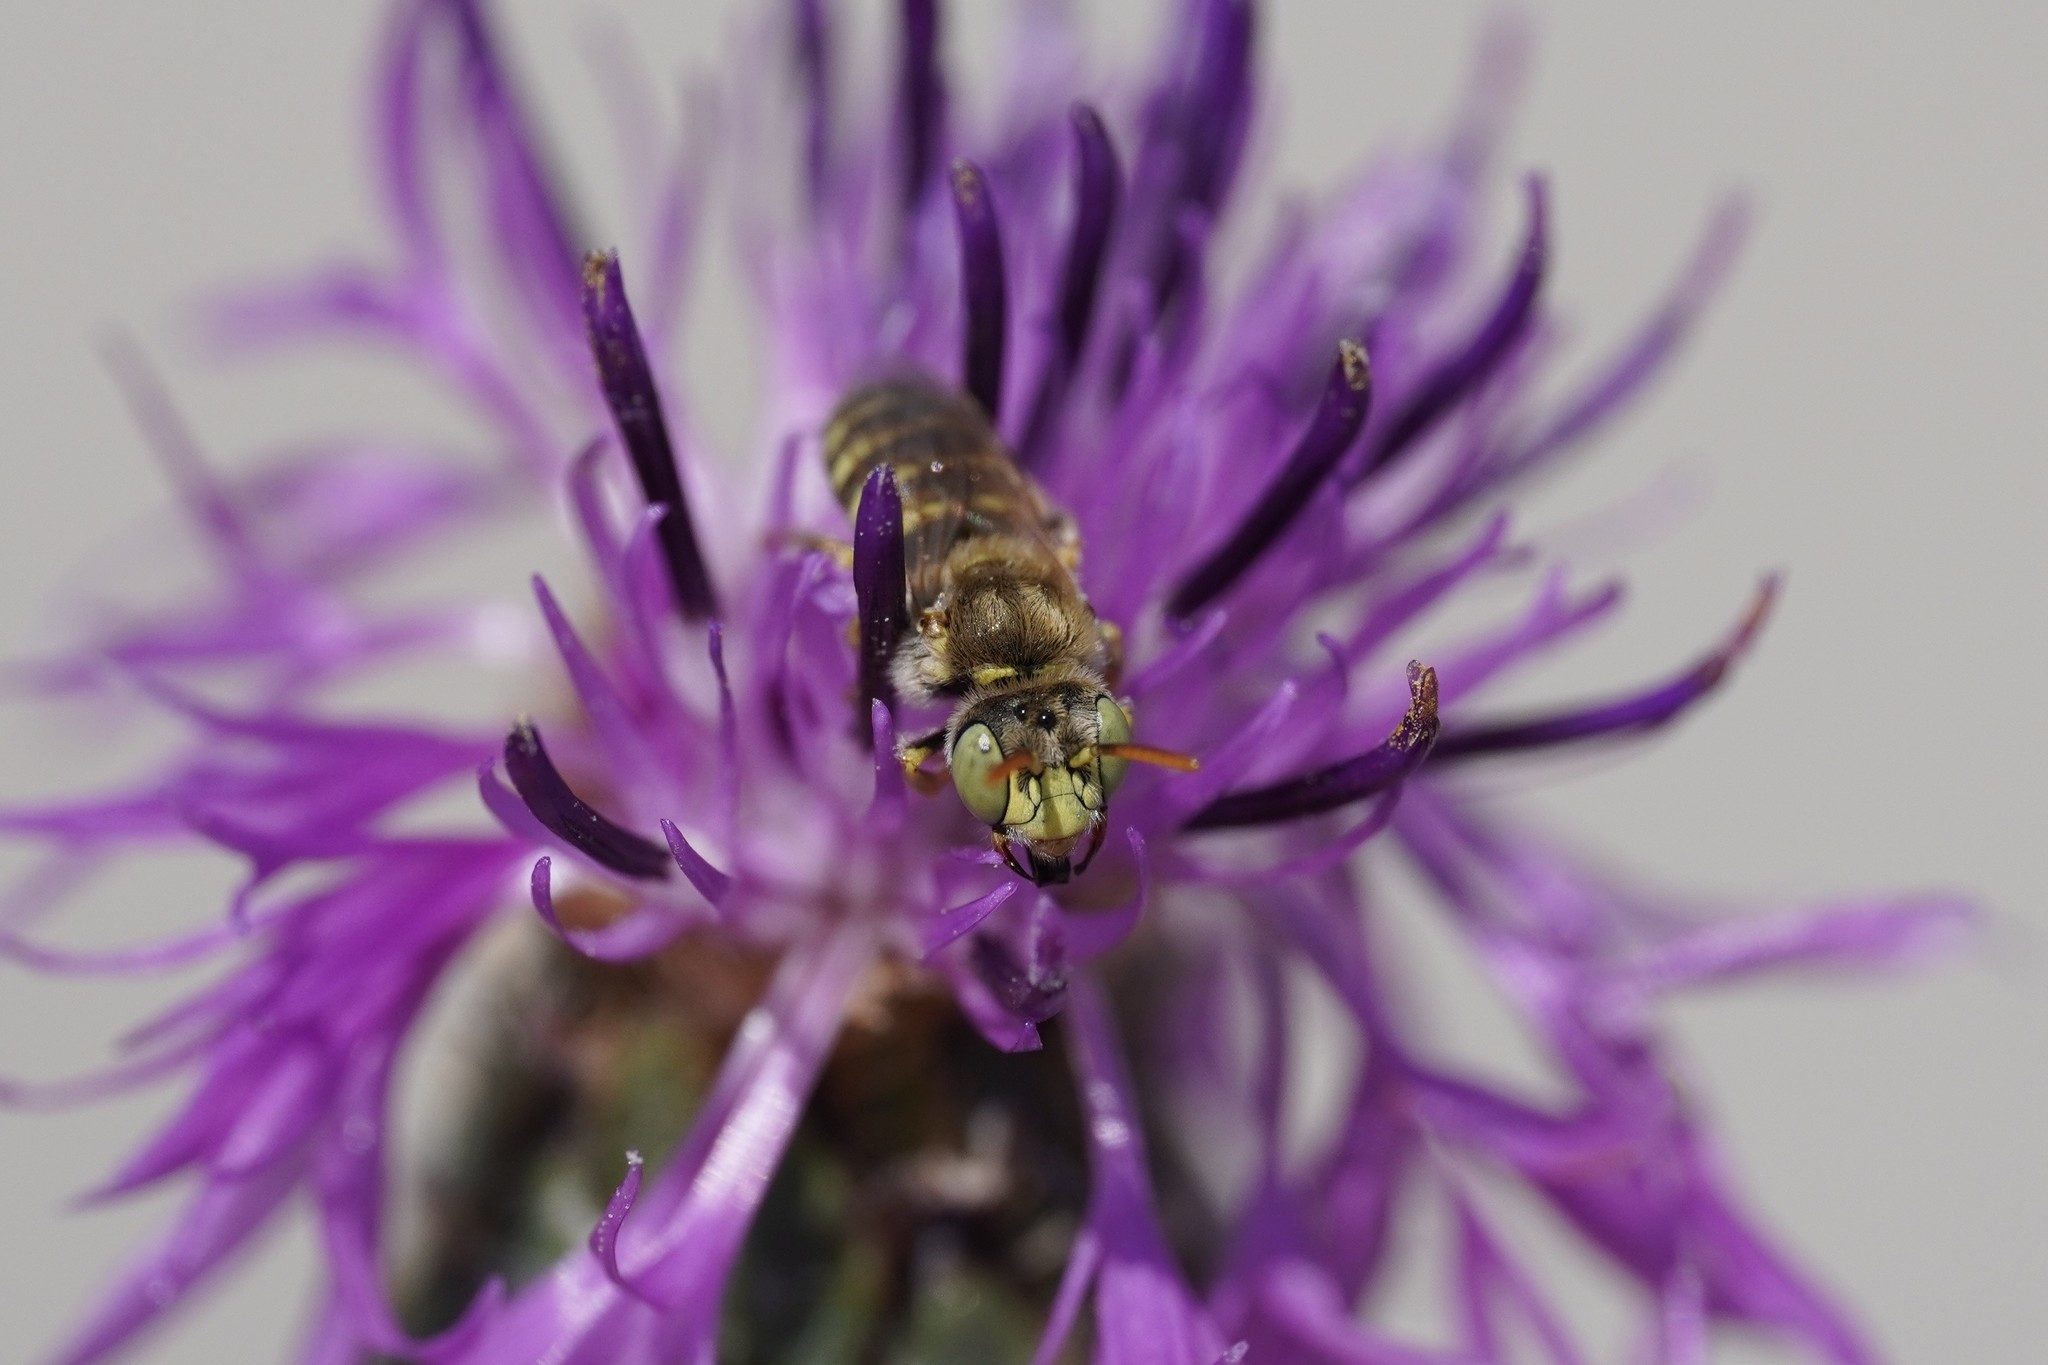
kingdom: Animalia
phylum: Arthropoda
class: Insecta
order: Hymenoptera
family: Andrenidae
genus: Camptopoeum
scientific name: Camptopoeum friesei
